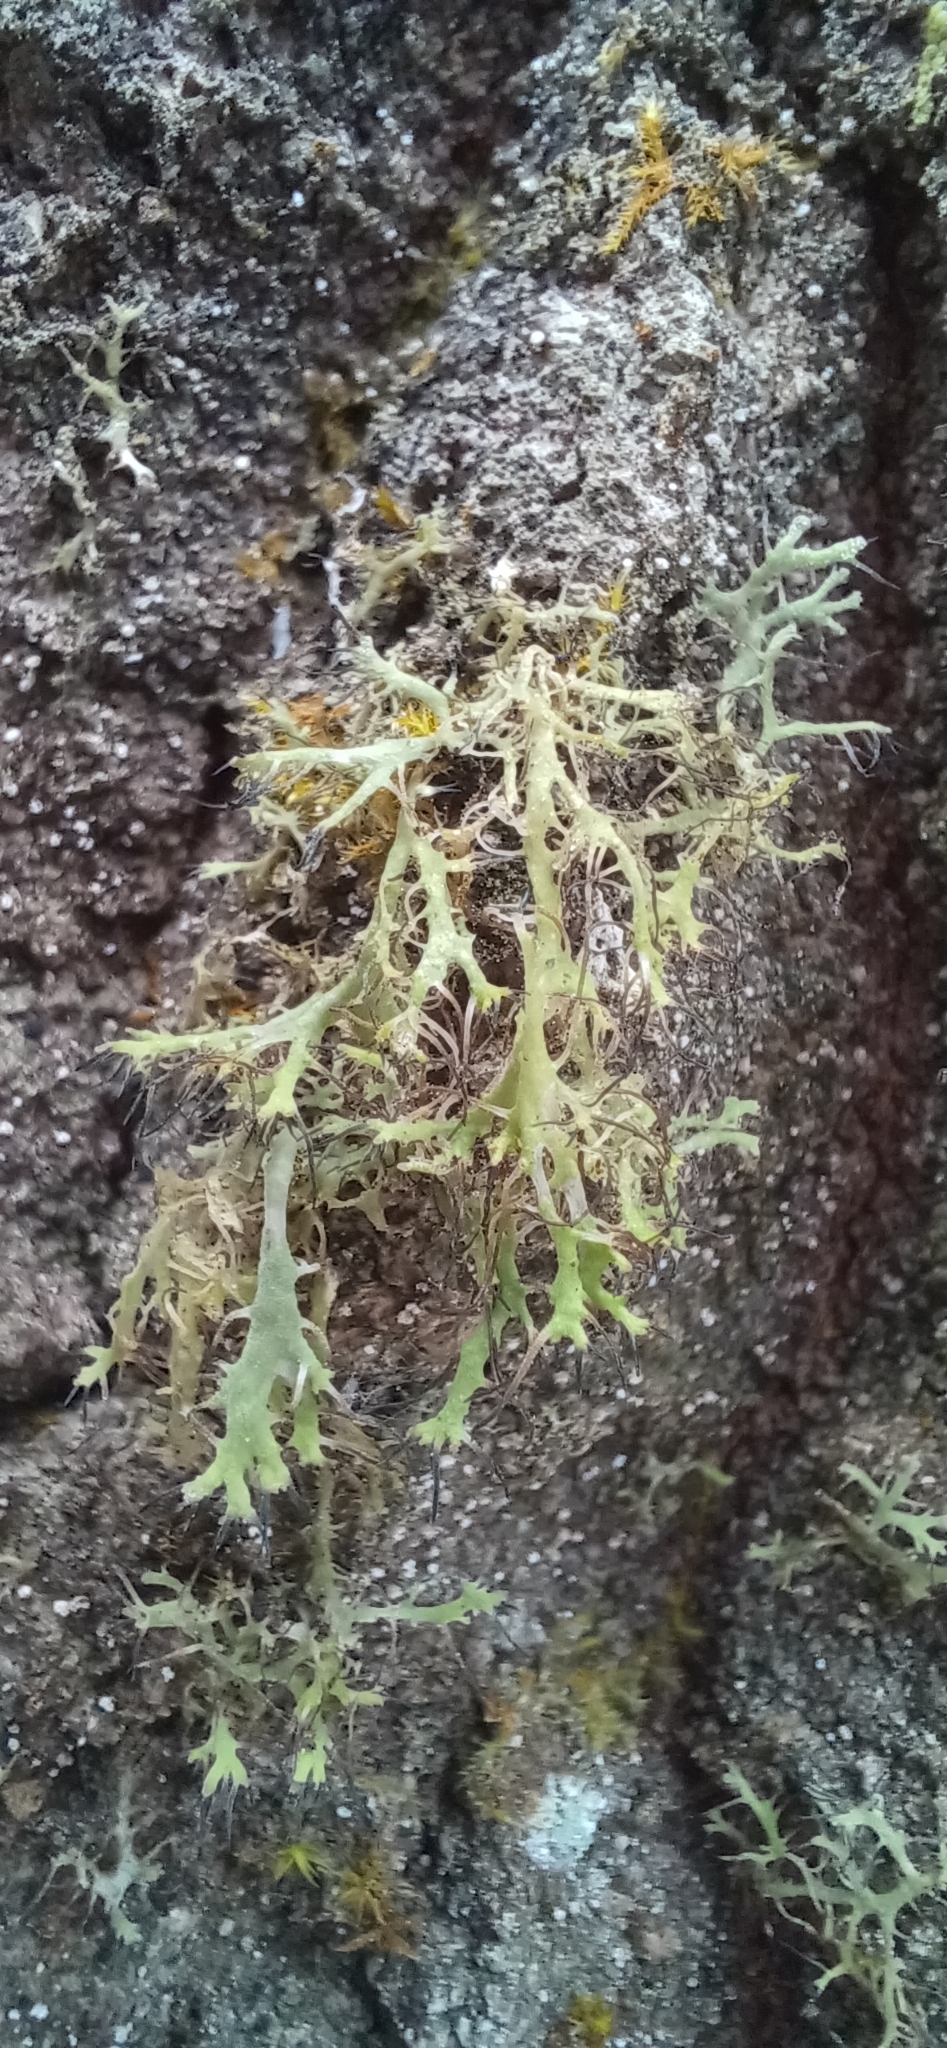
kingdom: Fungi
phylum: Ascomycota
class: Lecanoromycetes
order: Caliciales
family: Physciaceae
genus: Anaptychia
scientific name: Anaptychia ciliaris
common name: Great ciliated lichen
